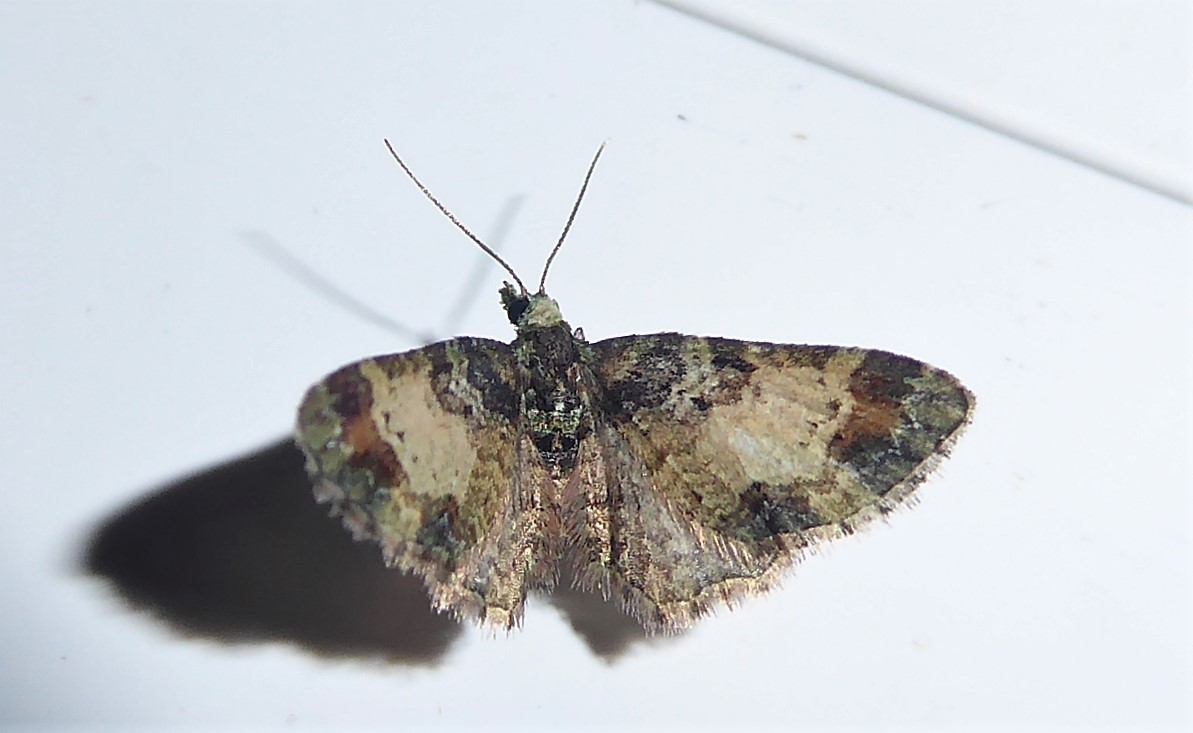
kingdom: Animalia
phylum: Arthropoda
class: Insecta
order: Lepidoptera
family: Geometridae
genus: Pasiphila
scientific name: Pasiphila sandycias
